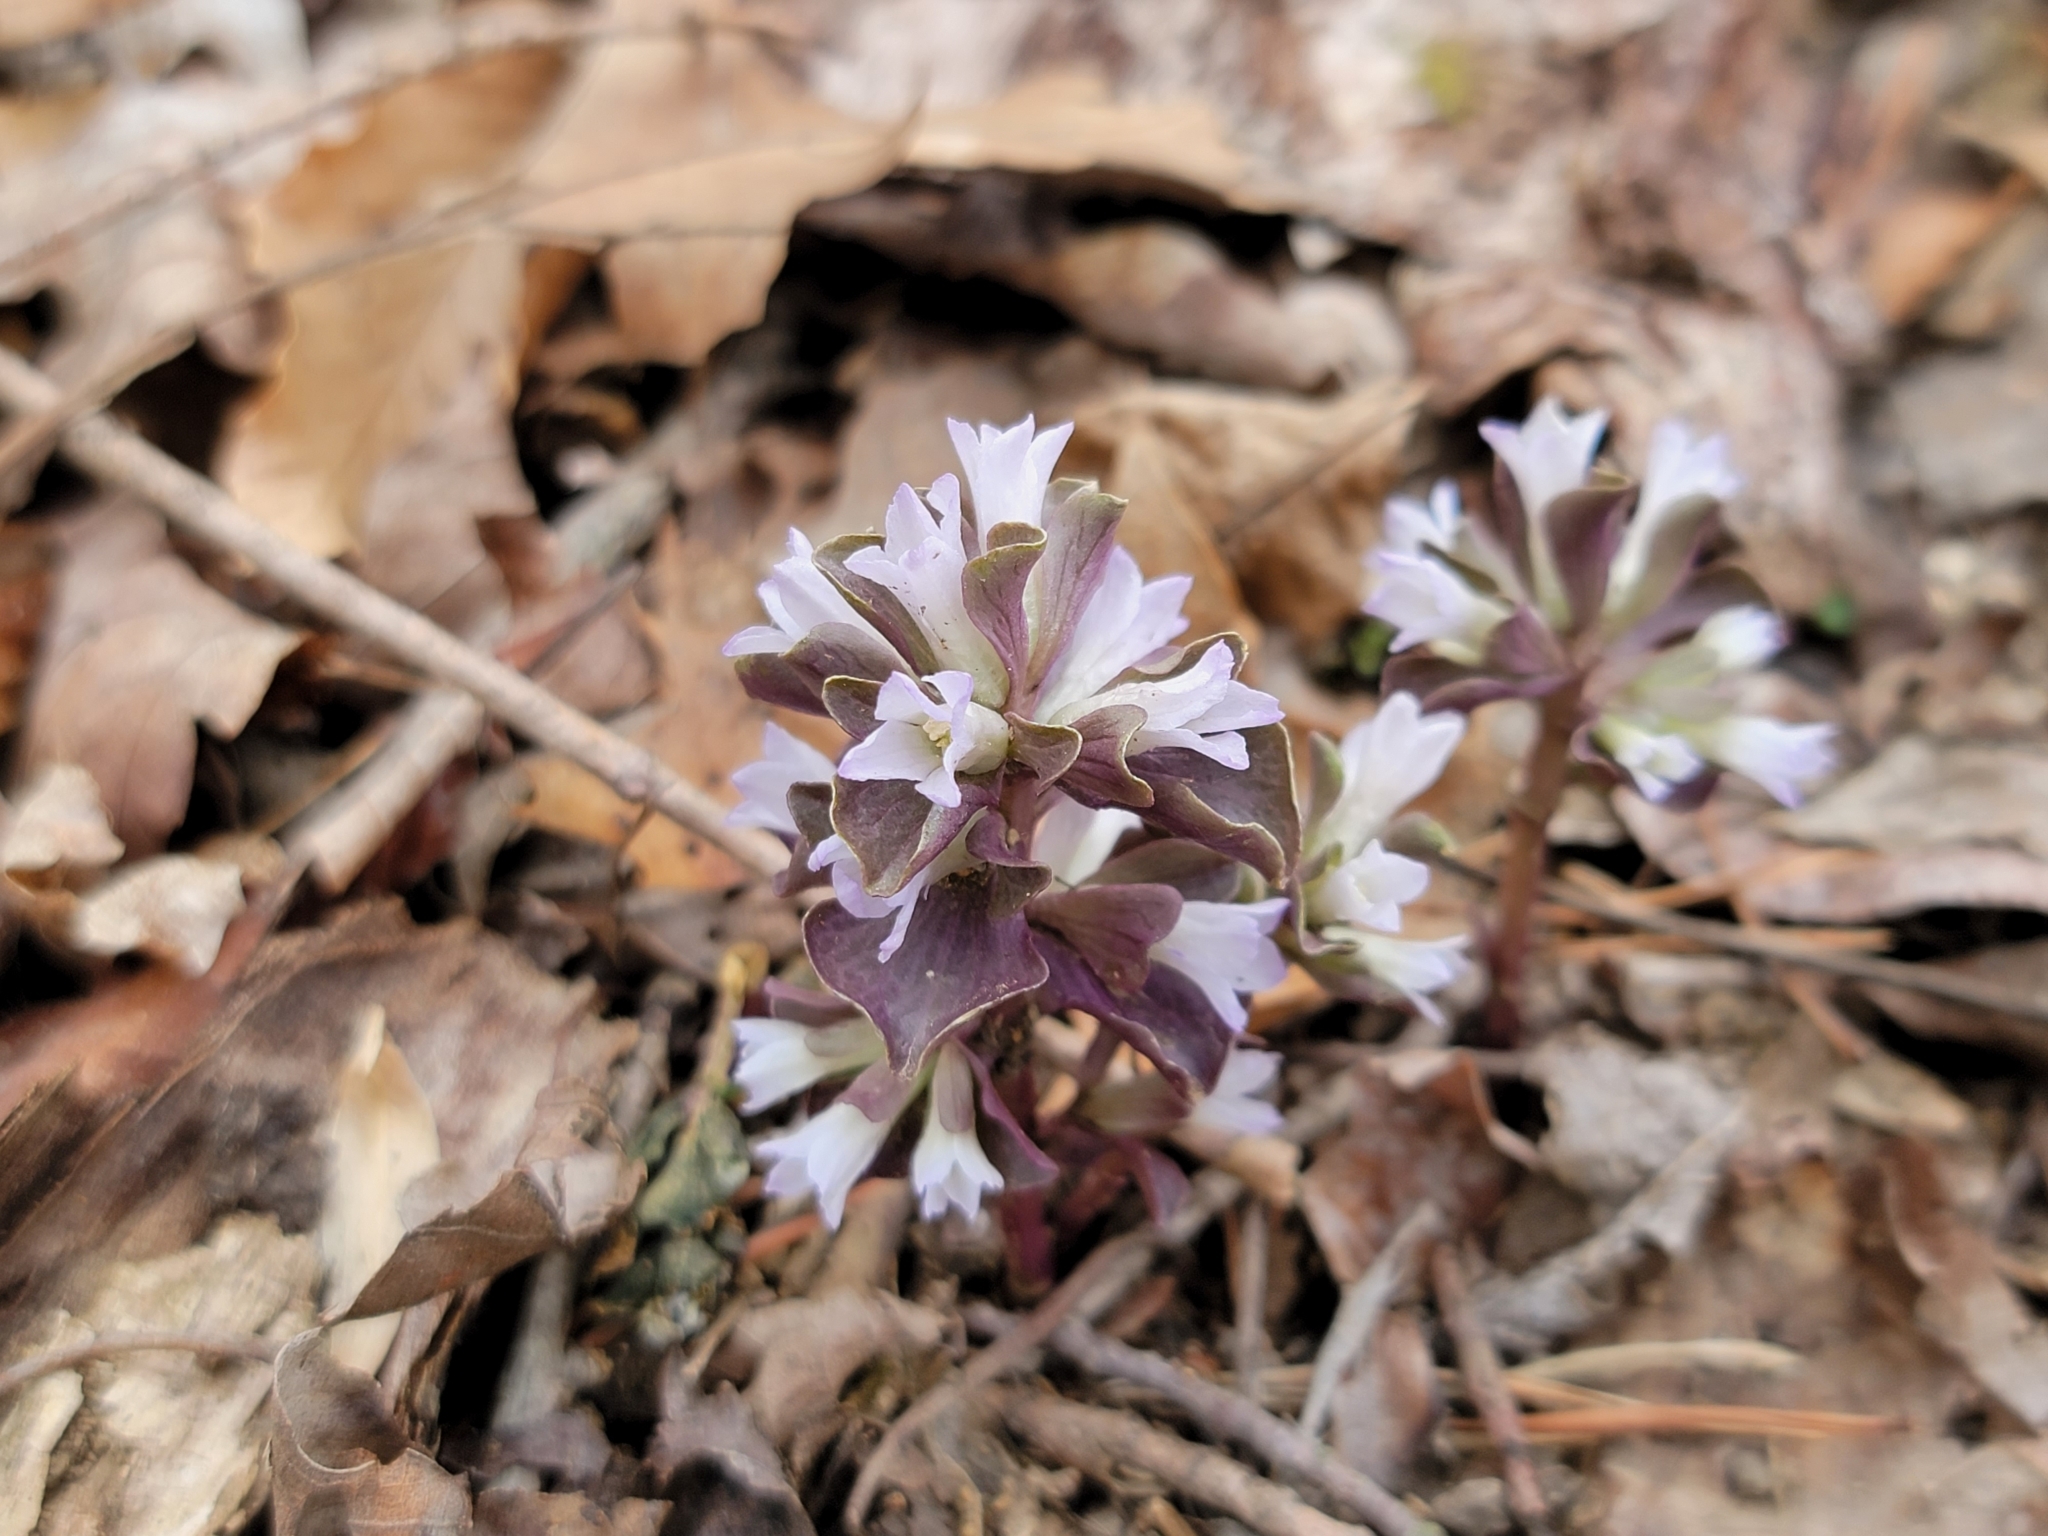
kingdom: Plantae
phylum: Tracheophyta
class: Magnoliopsida
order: Gentianales
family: Gentianaceae
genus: Obolaria
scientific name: Obolaria virginica
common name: Pennywort
